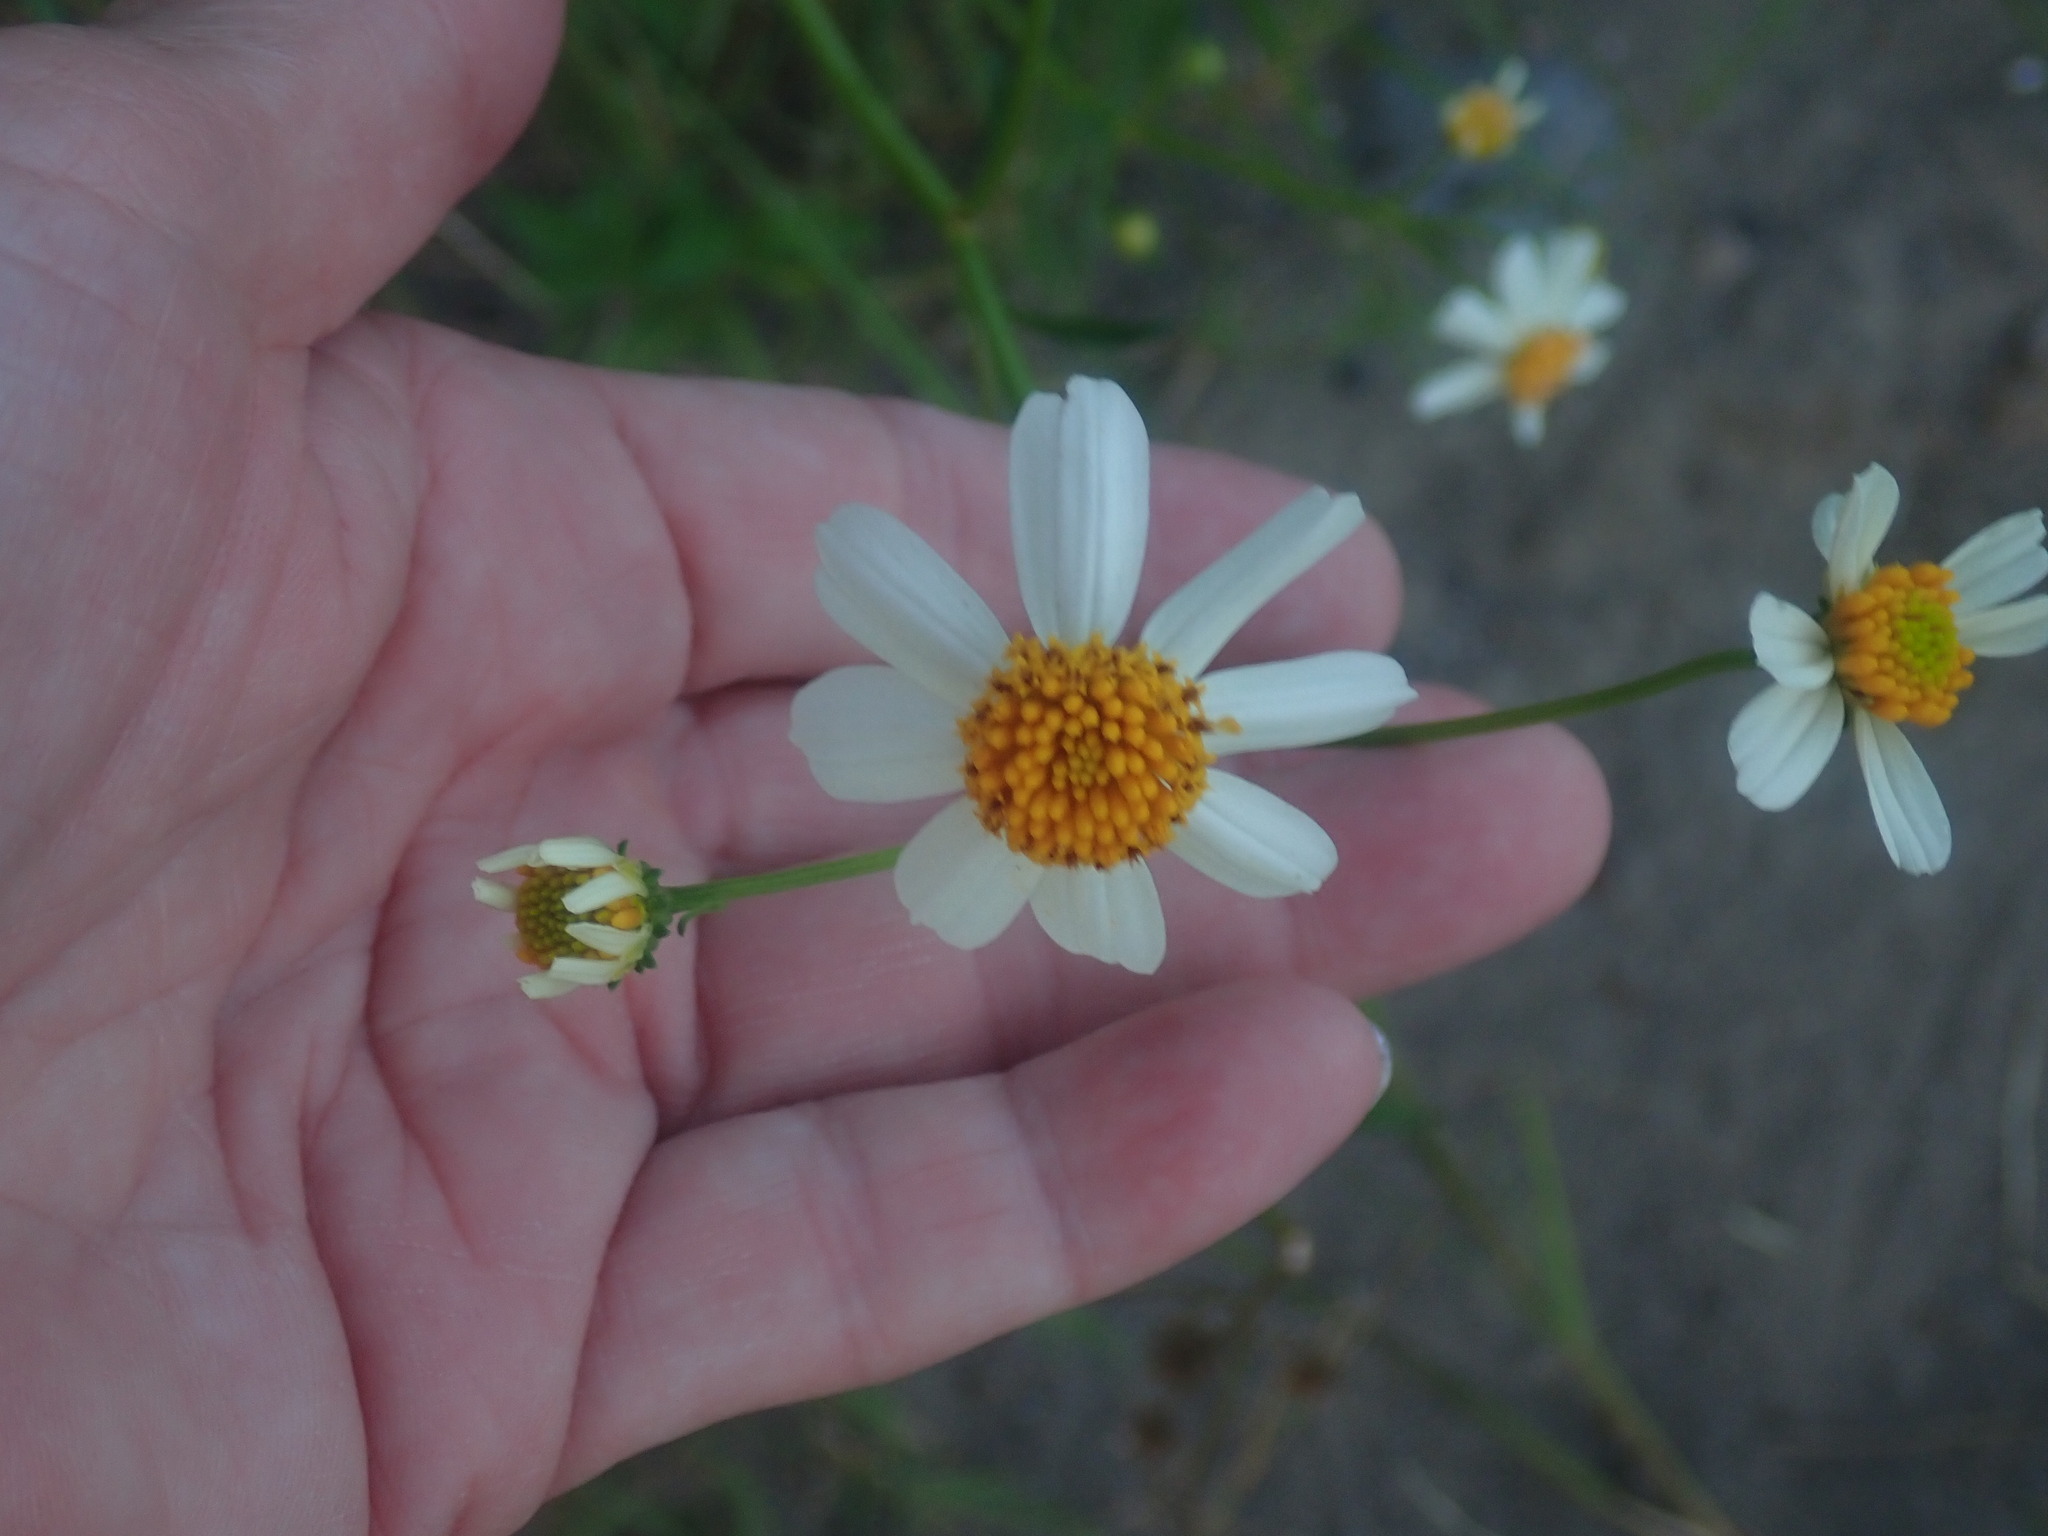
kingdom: Plantae
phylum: Tracheophyta
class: Magnoliopsida
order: Asterales
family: Asteraceae
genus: Bidens
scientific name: Bidens alba
